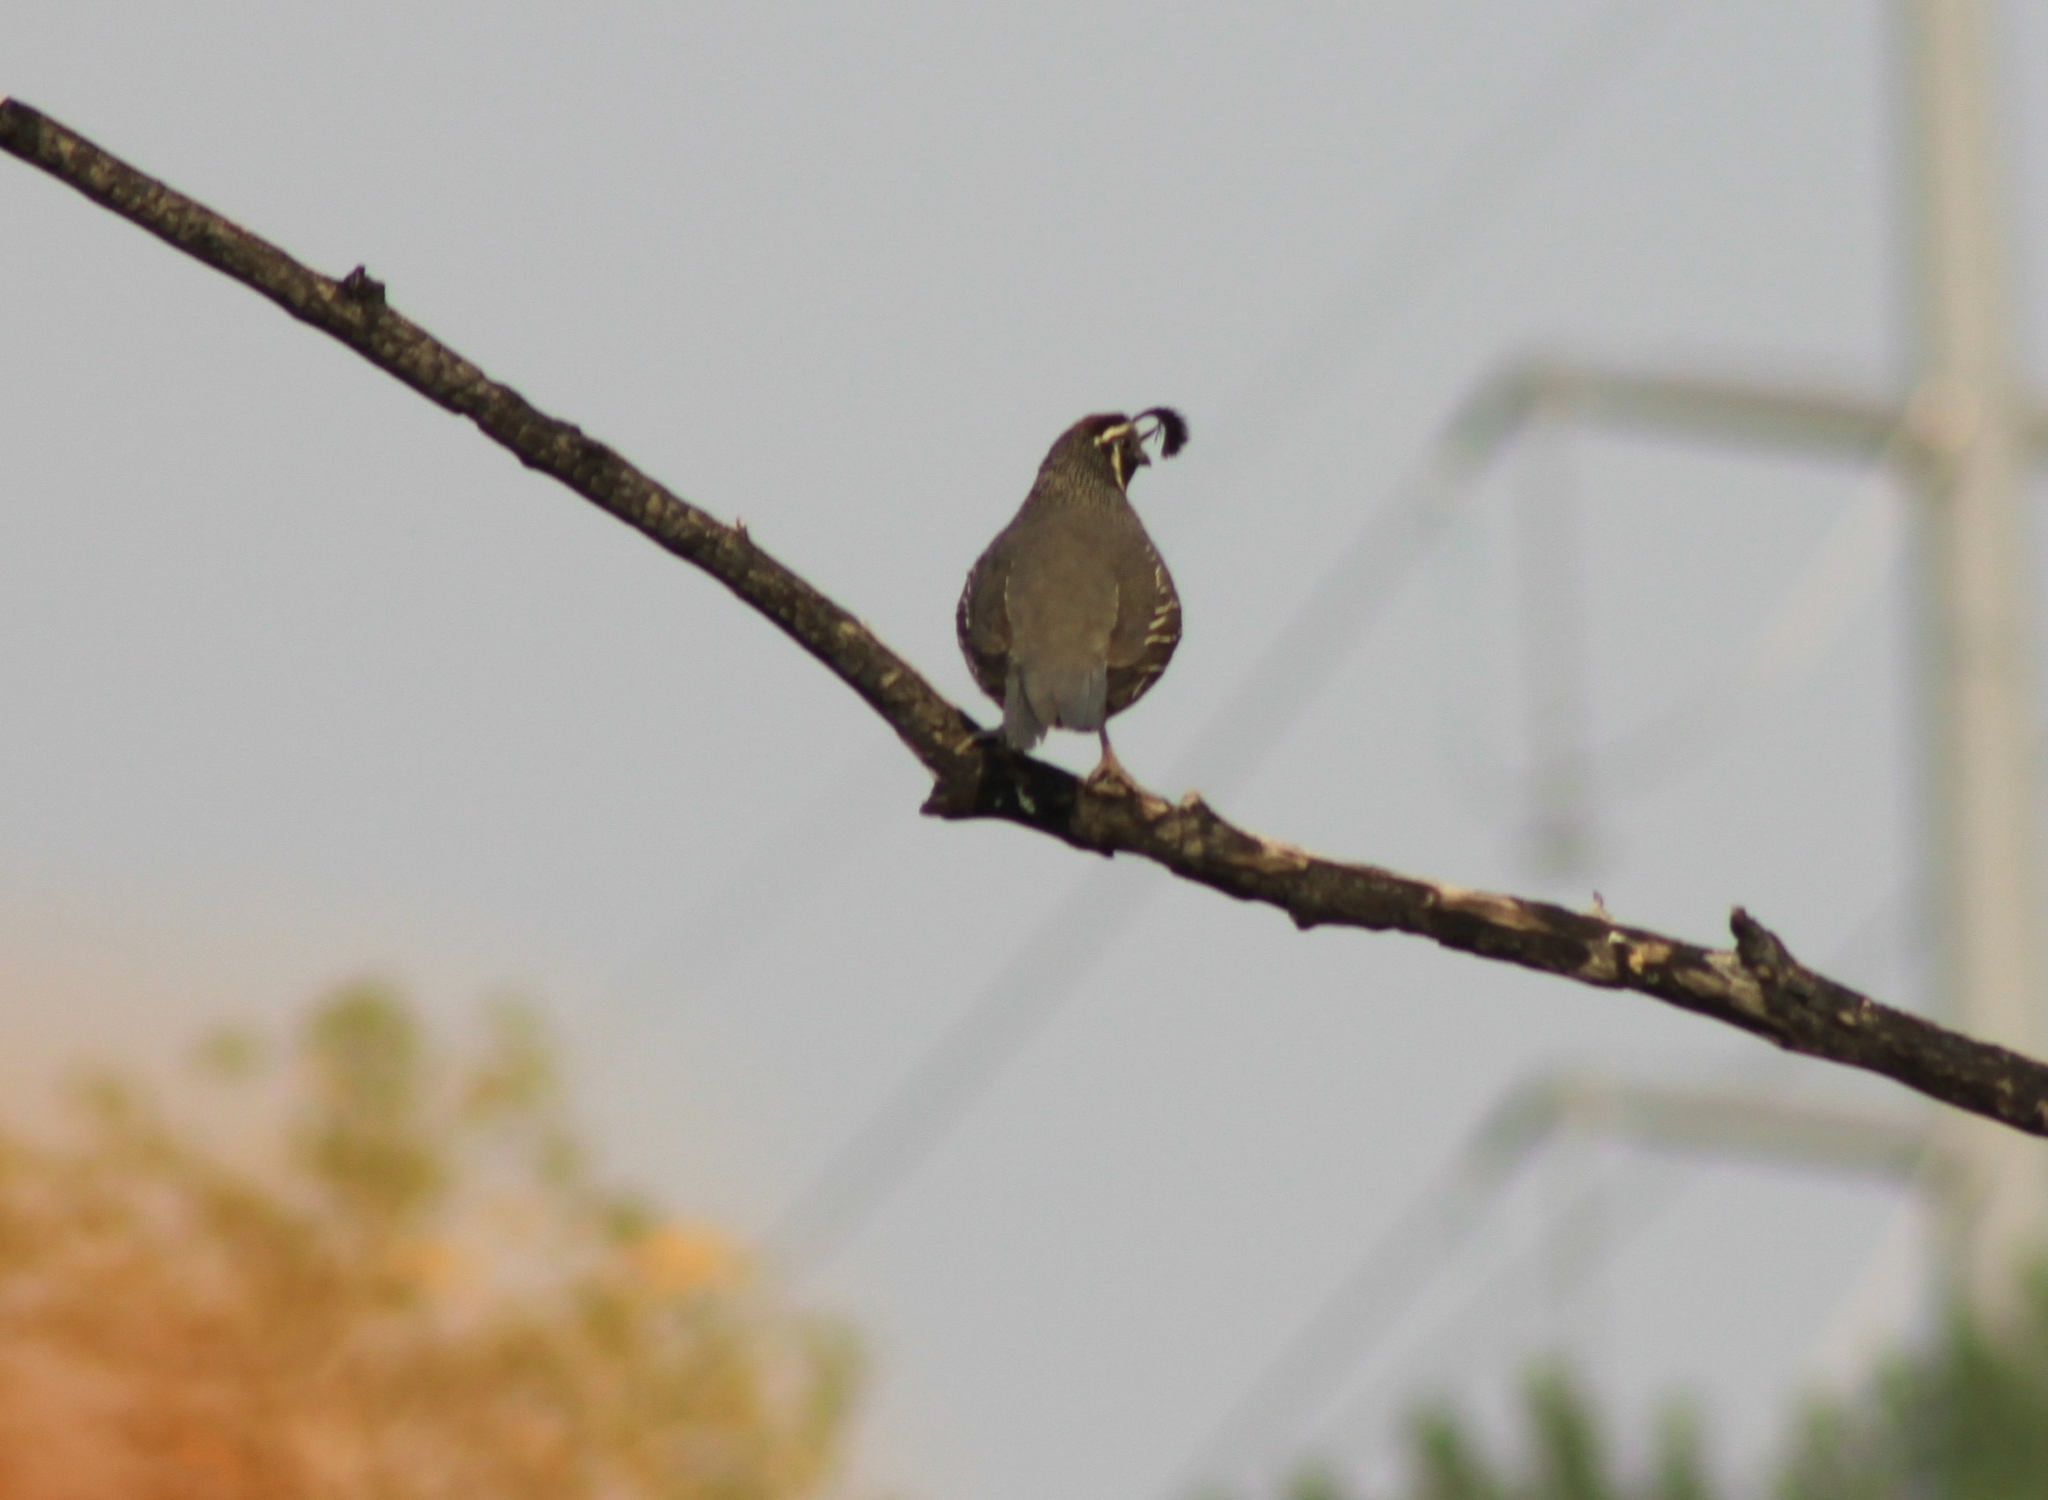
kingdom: Animalia
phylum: Chordata
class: Aves
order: Galliformes
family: Odontophoridae
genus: Callipepla
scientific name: Callipepla californica
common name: California quail
